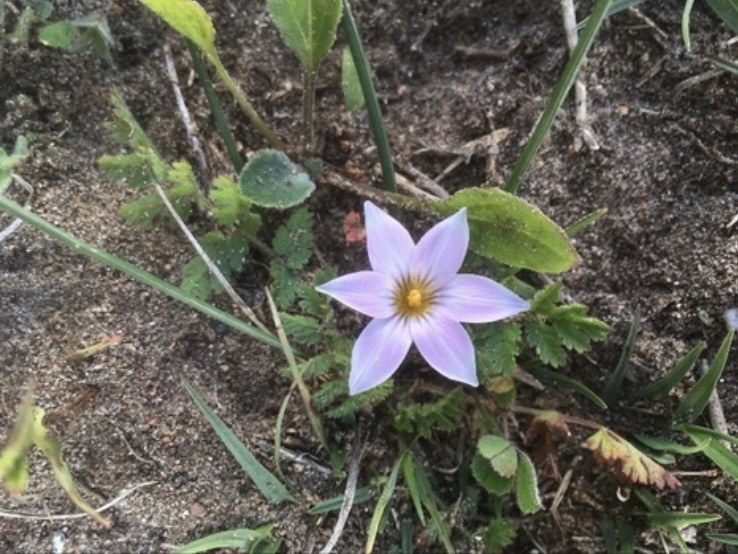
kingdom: Plantae
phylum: Tracheophyta
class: Liliopsida
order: Asparagales
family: Iridaceae
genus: Romulea
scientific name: Romulea rosea
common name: Oniongrass
